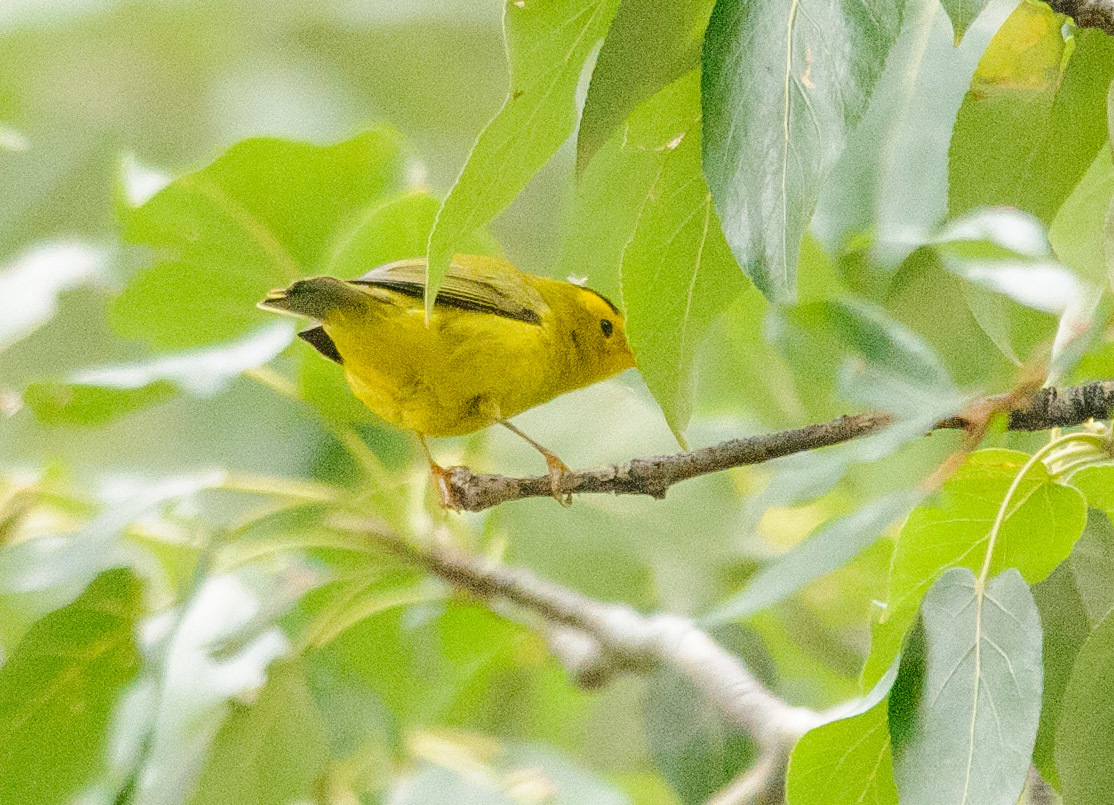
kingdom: Animalia
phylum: Chordata
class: Aves
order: Passeriformes
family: Parulidae
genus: Cardellina
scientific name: Cardellina pusilla
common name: Wilson's warbler
